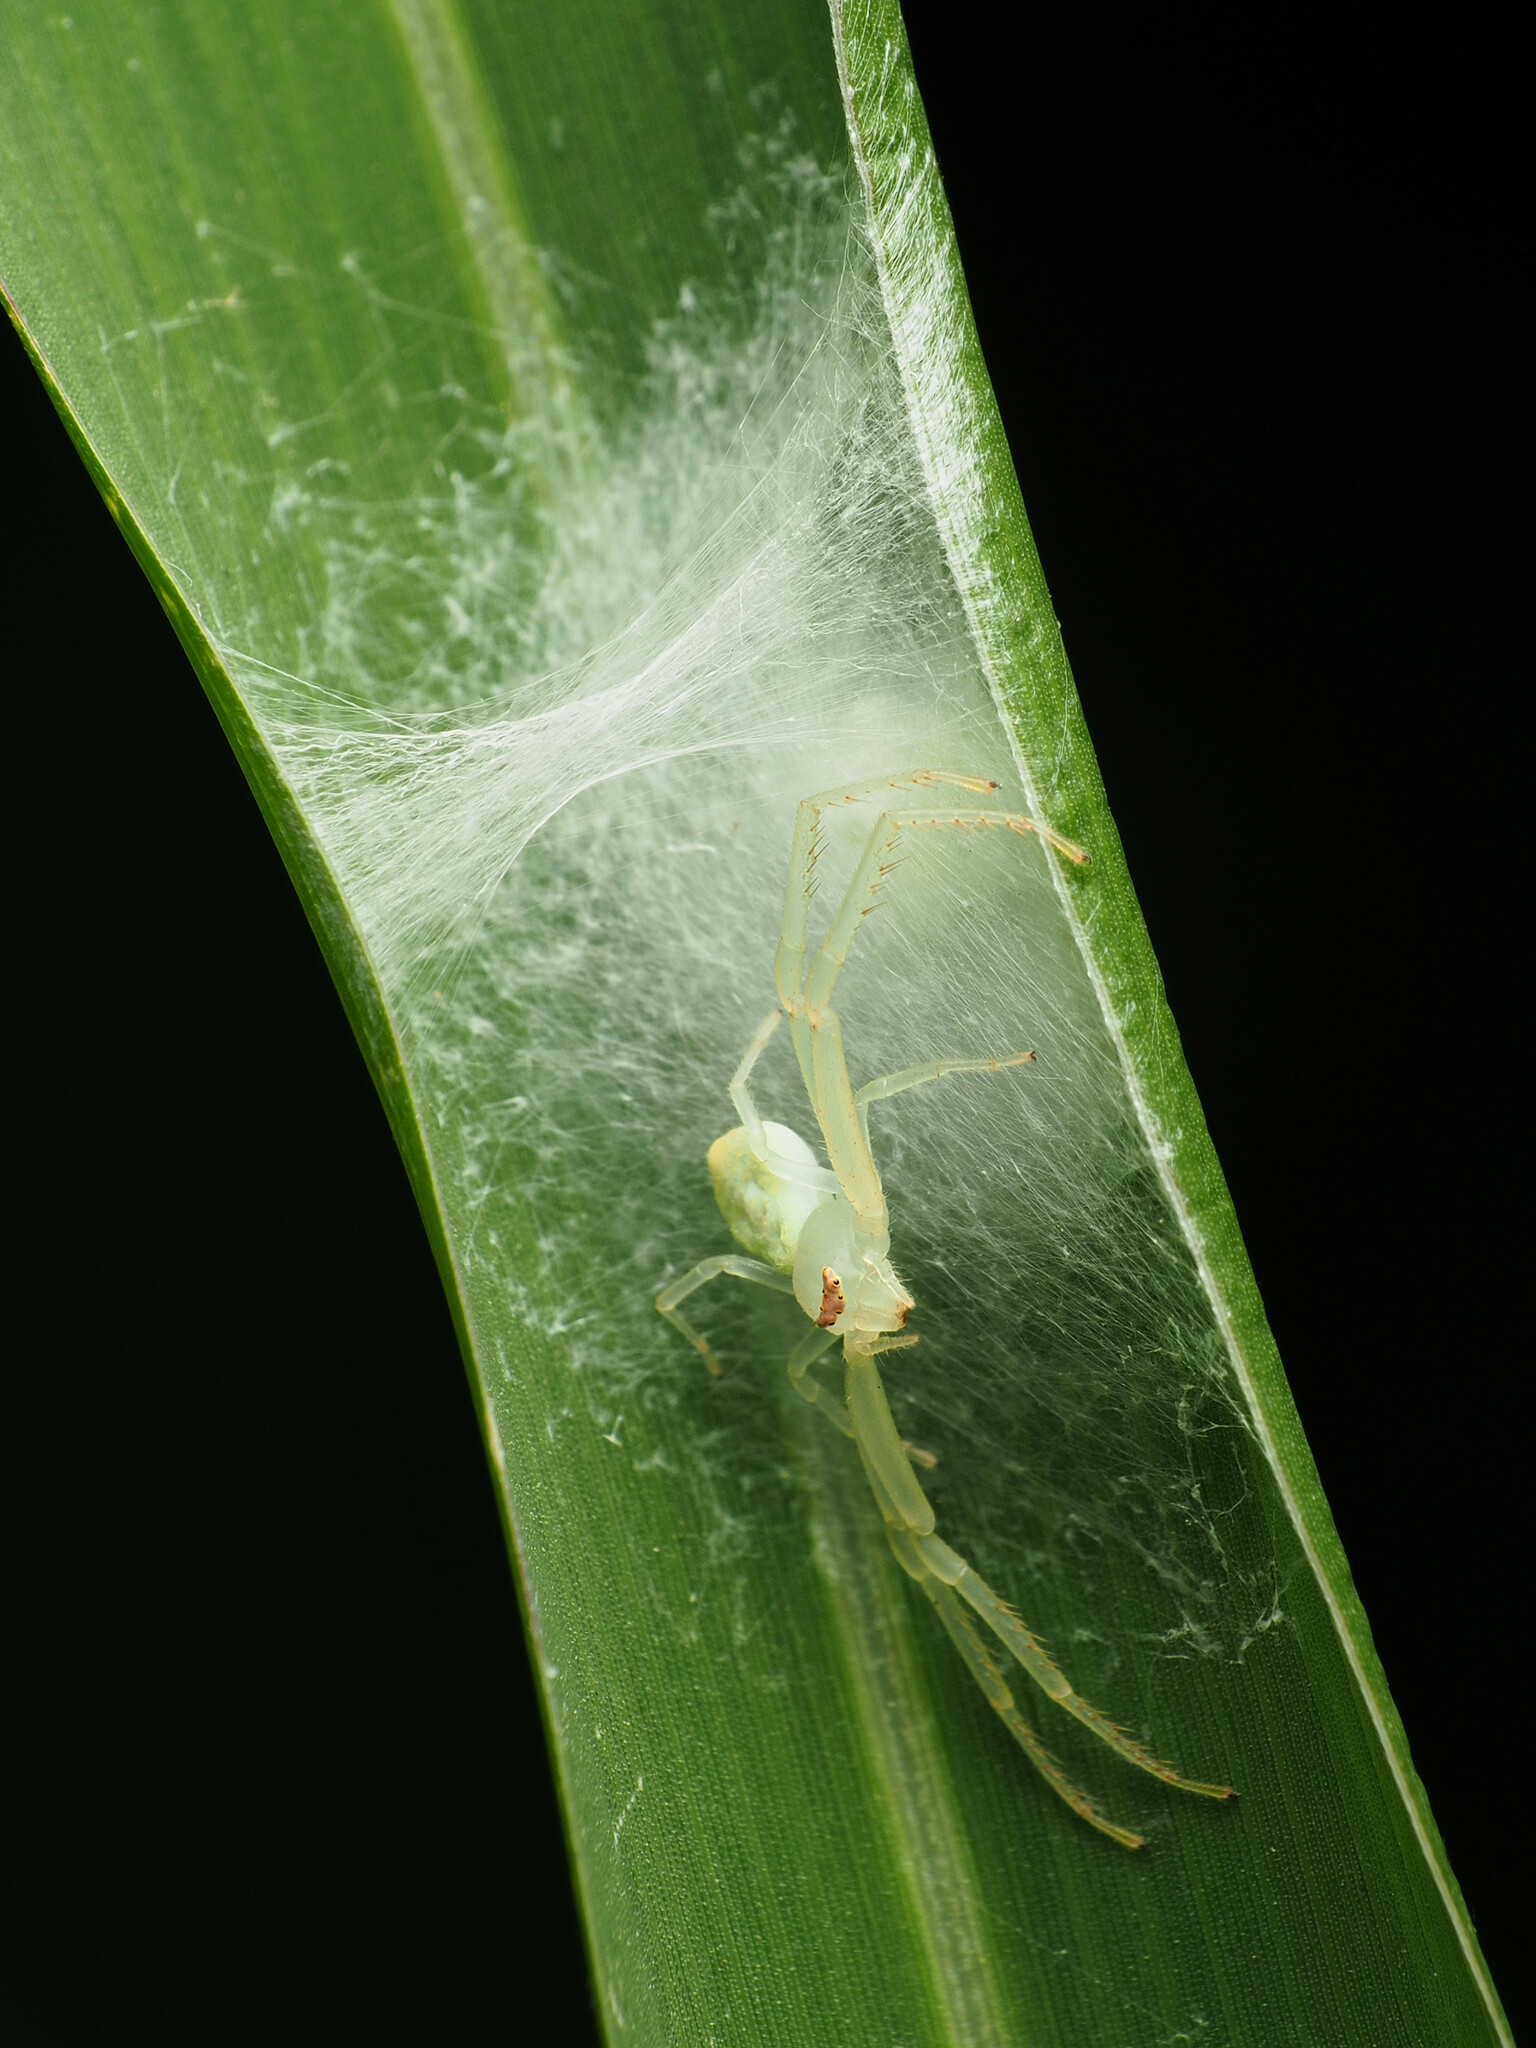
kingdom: Animalia
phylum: Arthropoda
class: Arachnida
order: Araneae
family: Thomisidae
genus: Misumessus
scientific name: Misumessus oblongus
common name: American green crab spider
